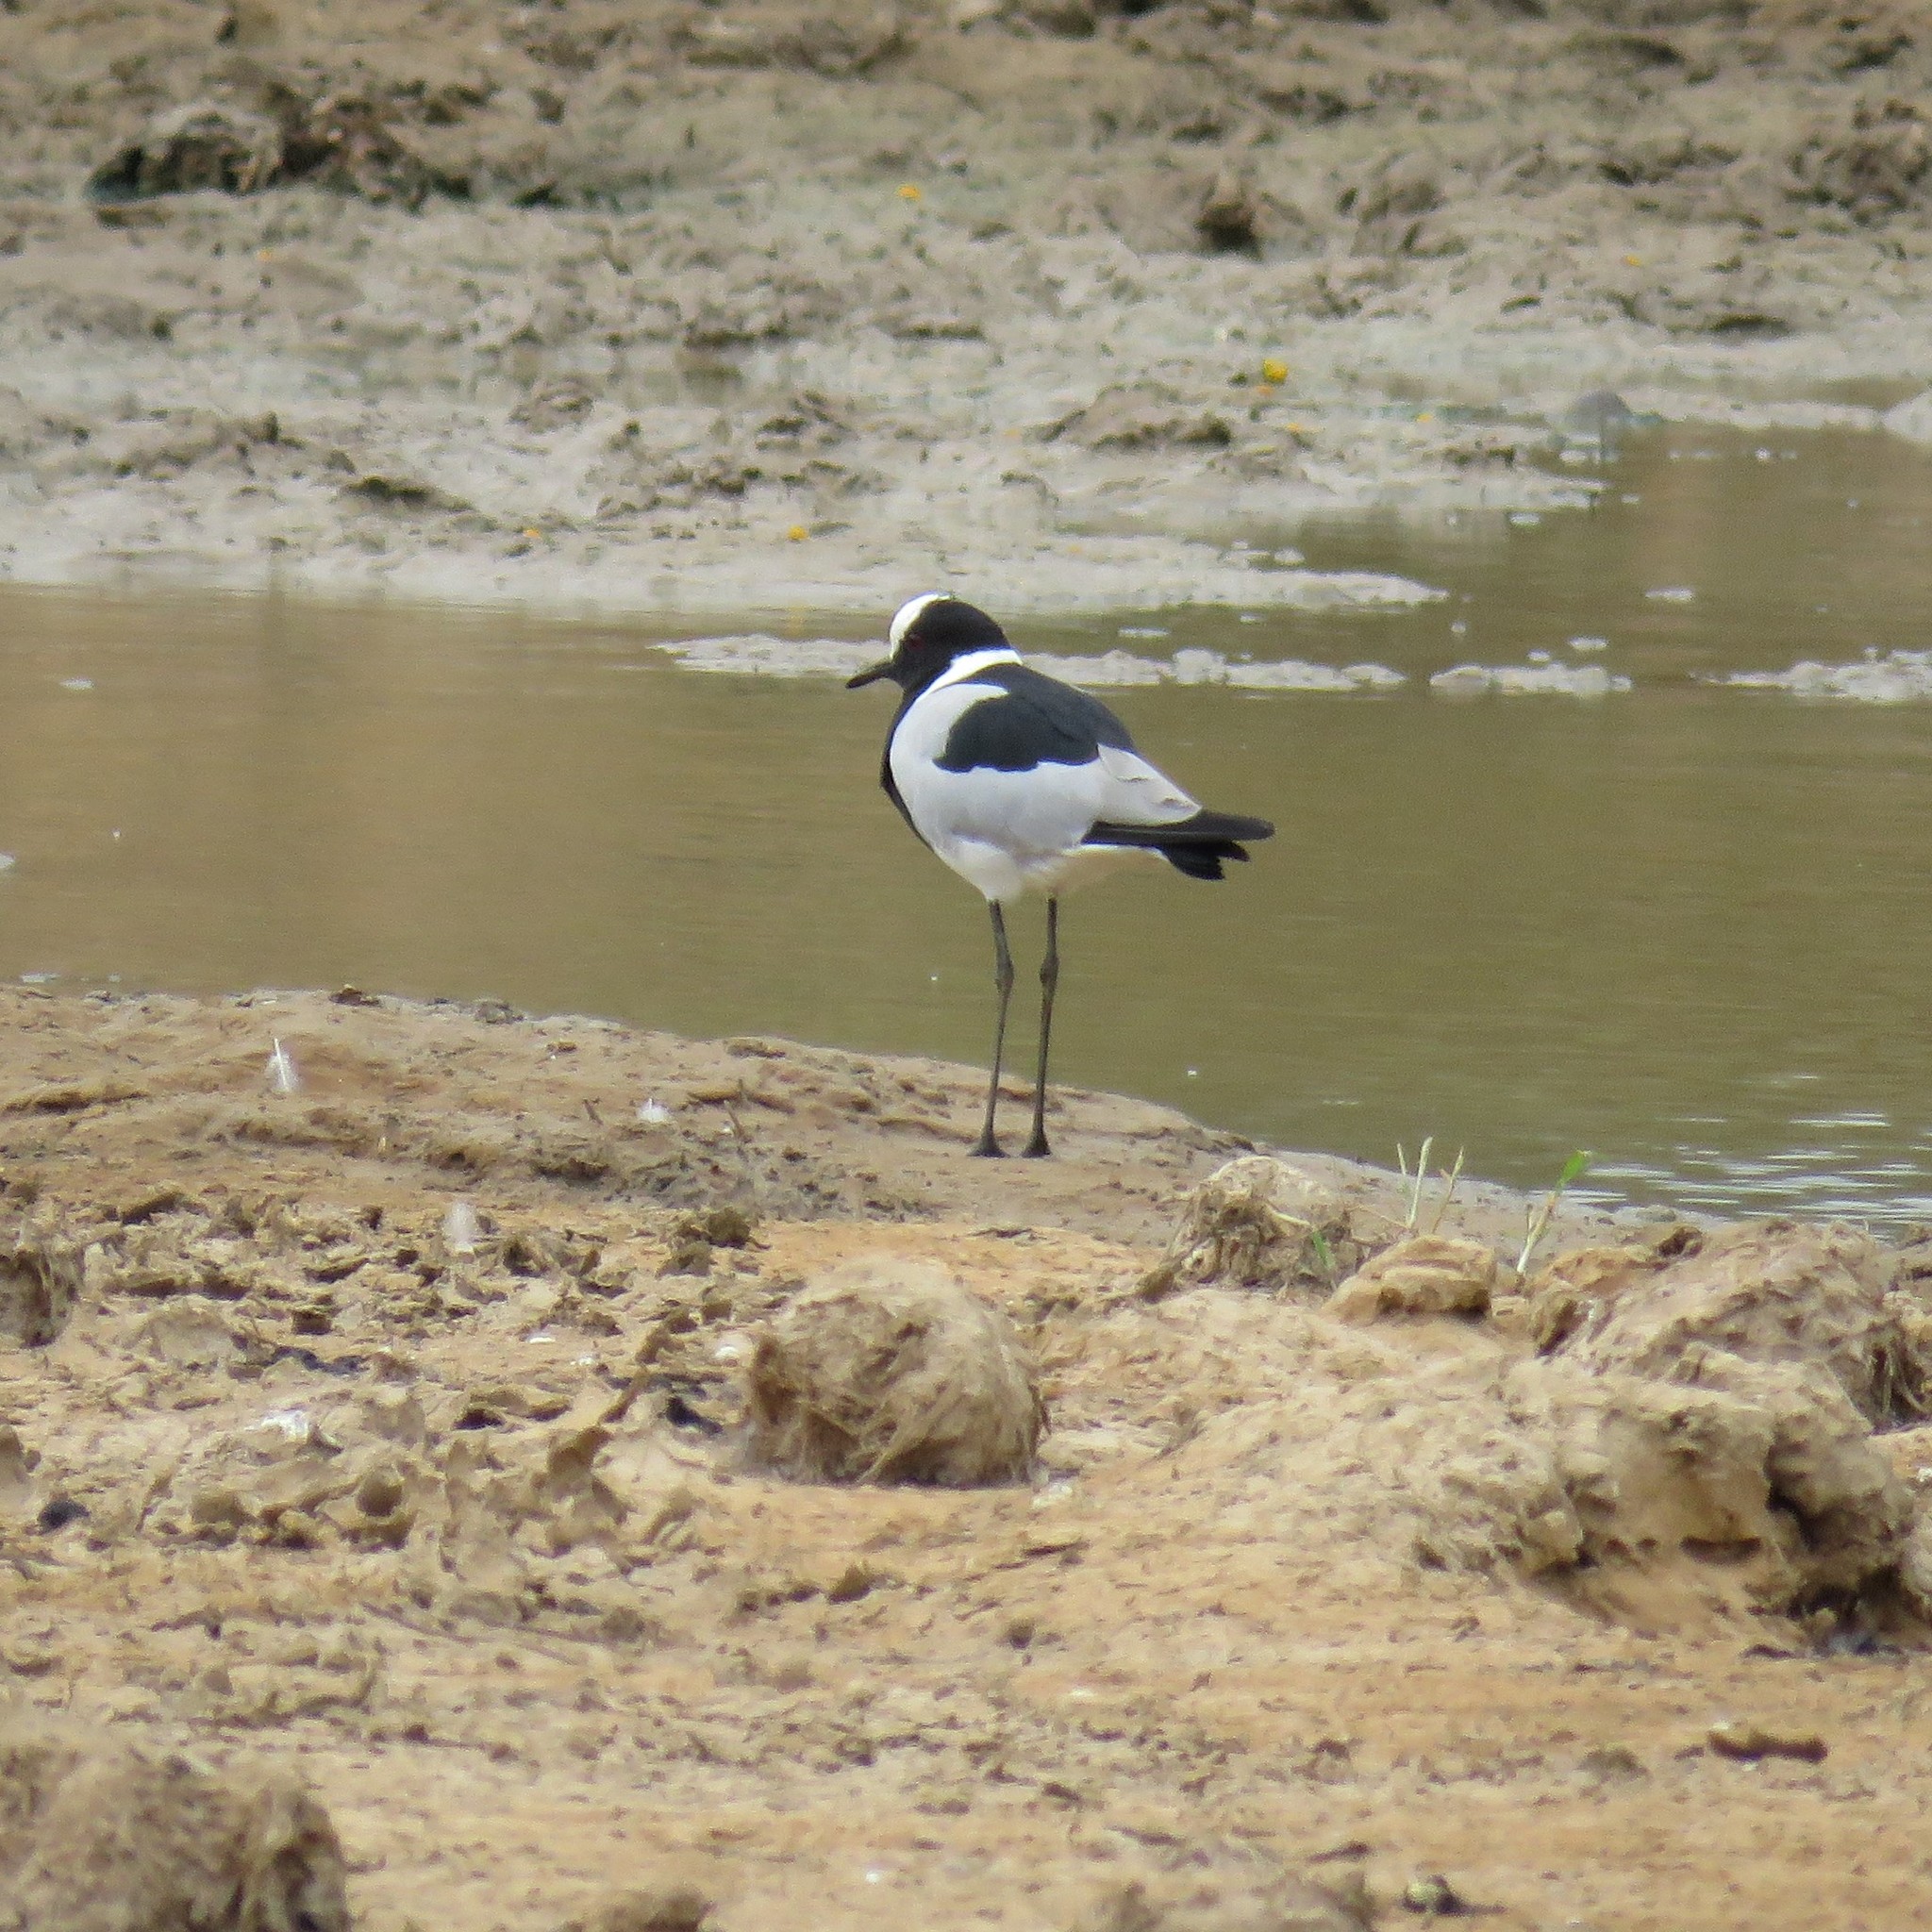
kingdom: Animalia
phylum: Chordata
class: Aves
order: Charadriiformes
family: Charadriidae
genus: Vanellus
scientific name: Vanellus armatus
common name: Blacksmith lapwing
